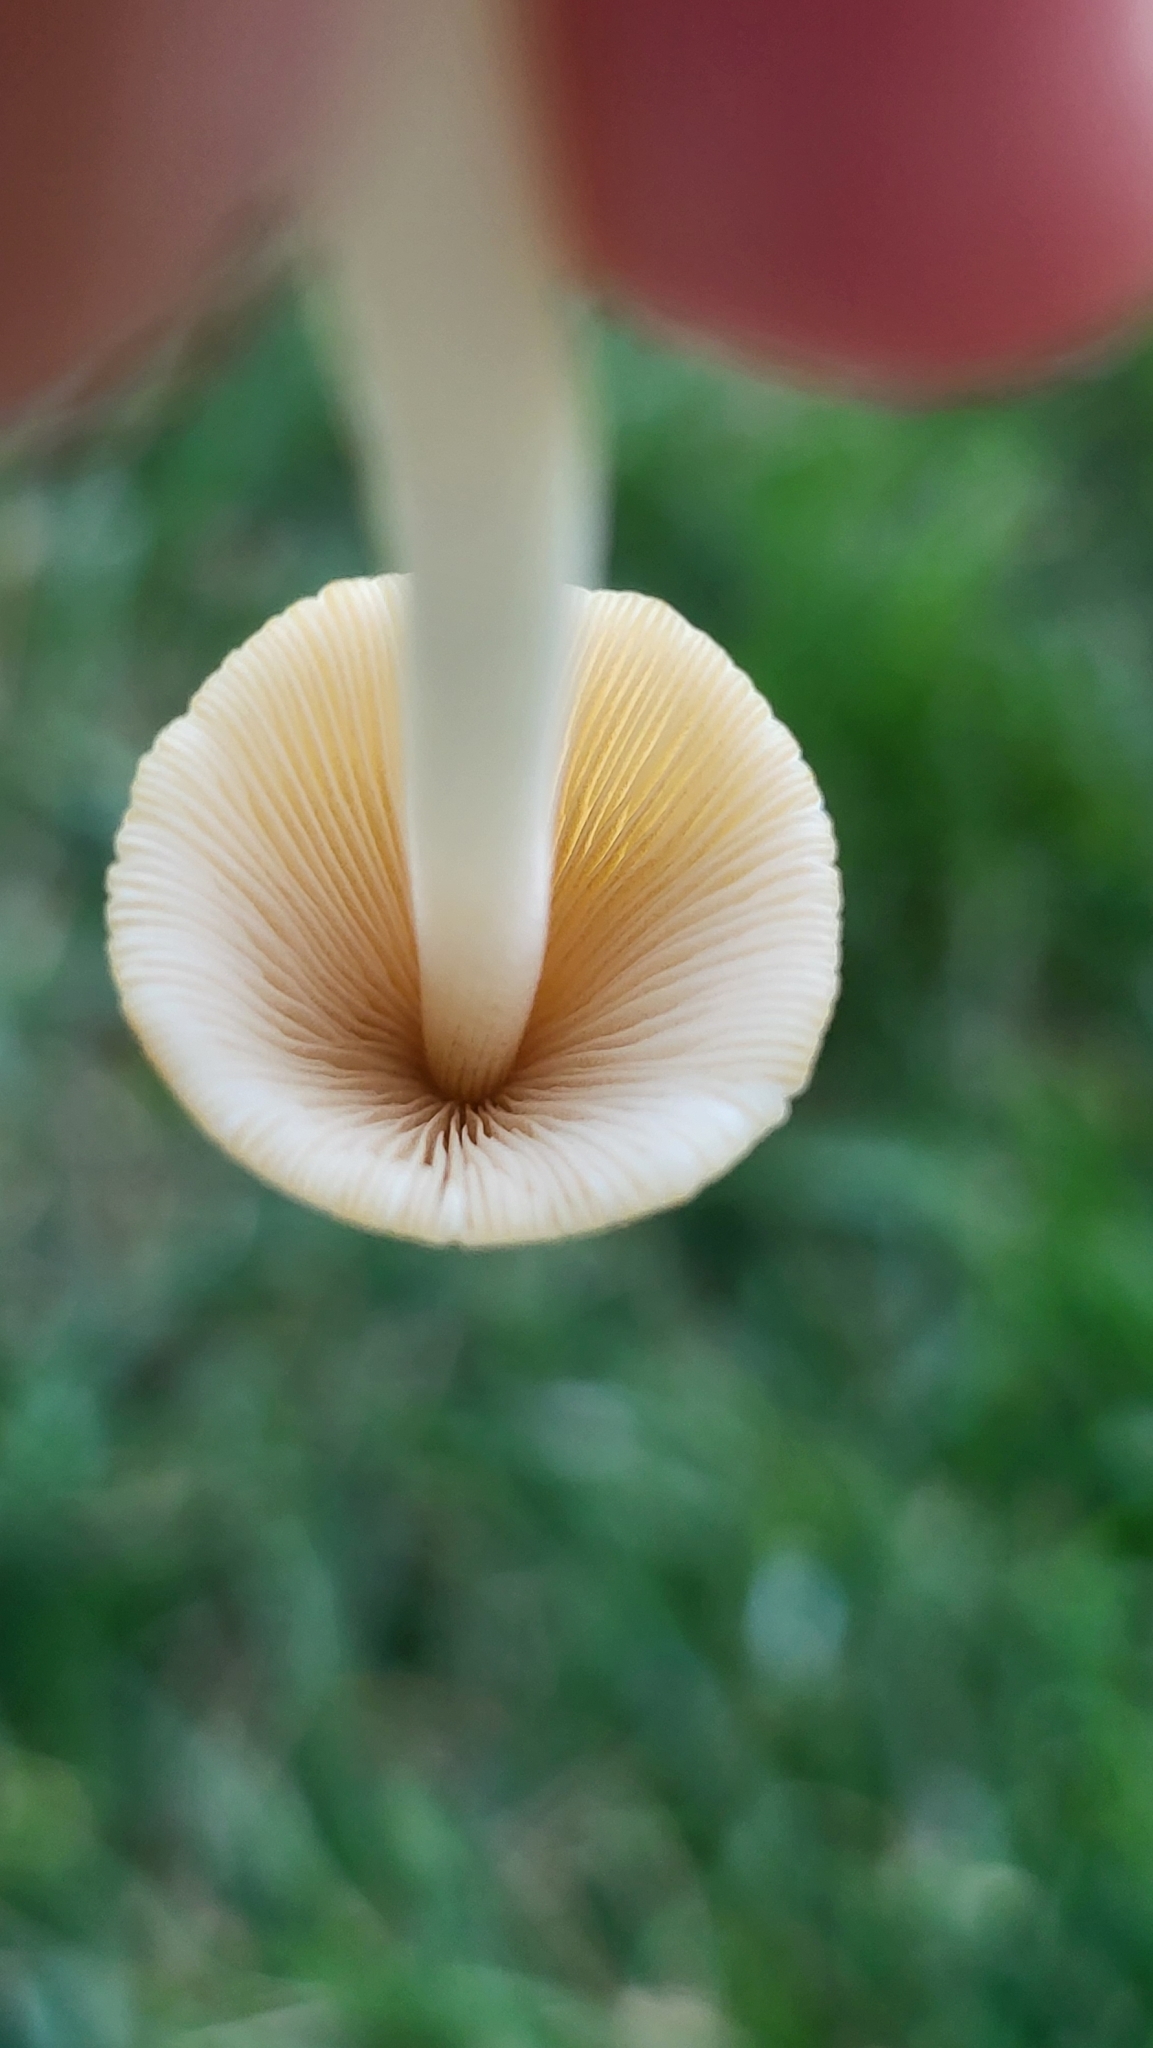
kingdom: Fungi
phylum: Basidiomycota
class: Agaricomycetes
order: Agaricales
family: Bolbitiaceae
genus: Conocybe
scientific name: Conocybe apala
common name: Milky conecap
